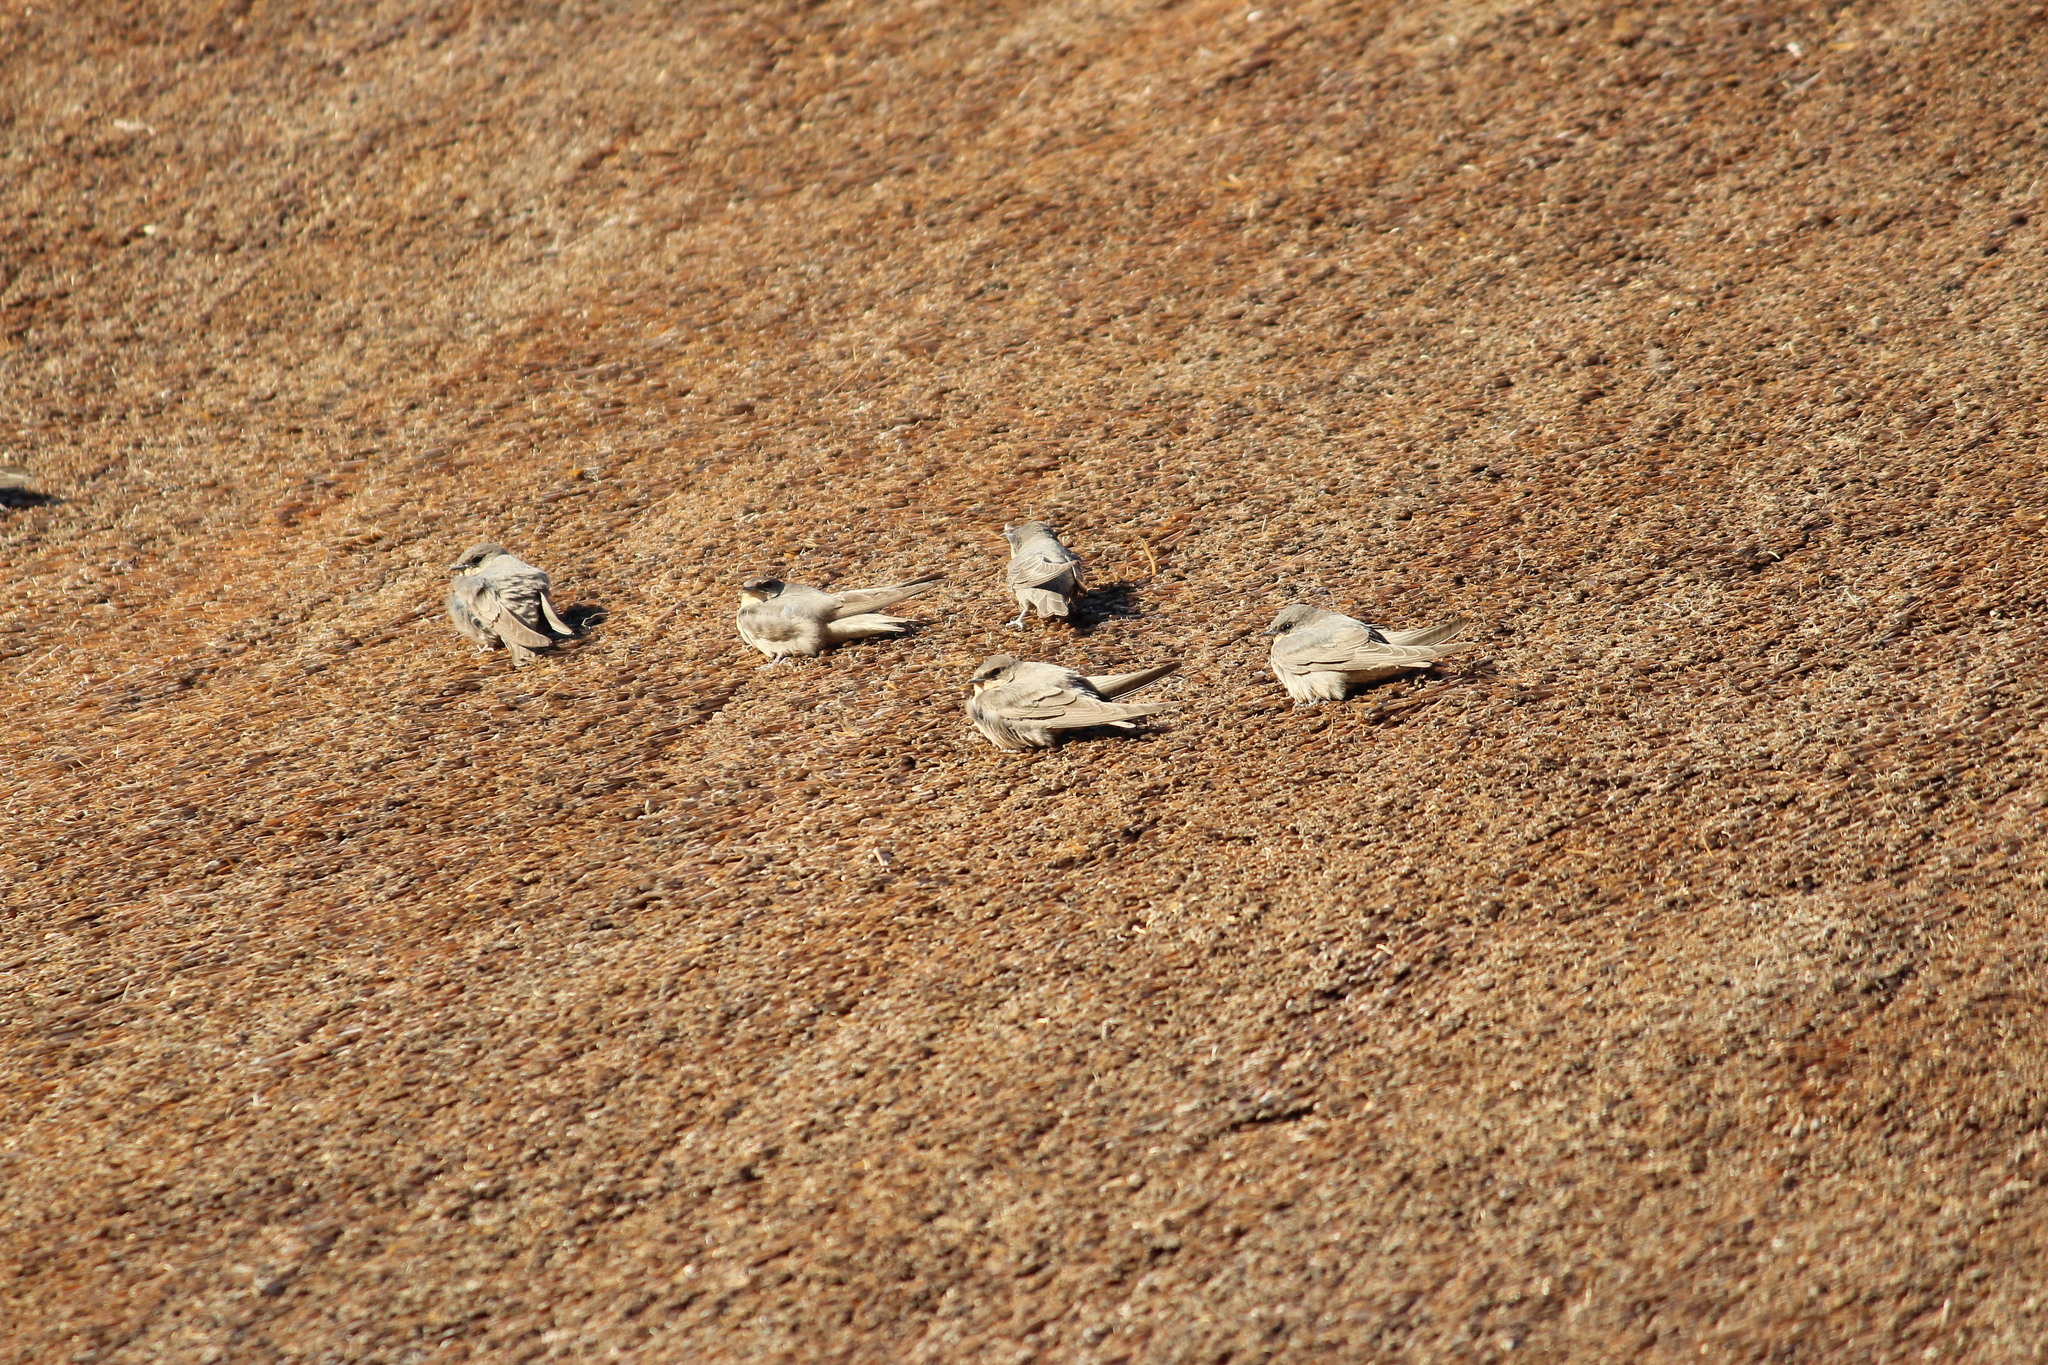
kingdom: Animalia
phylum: Chordata
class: Aves
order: Passeriformes
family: Hirundinidae
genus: Ptyonoprogne
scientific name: Ptyonoprogne fuligula
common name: Rock martin
